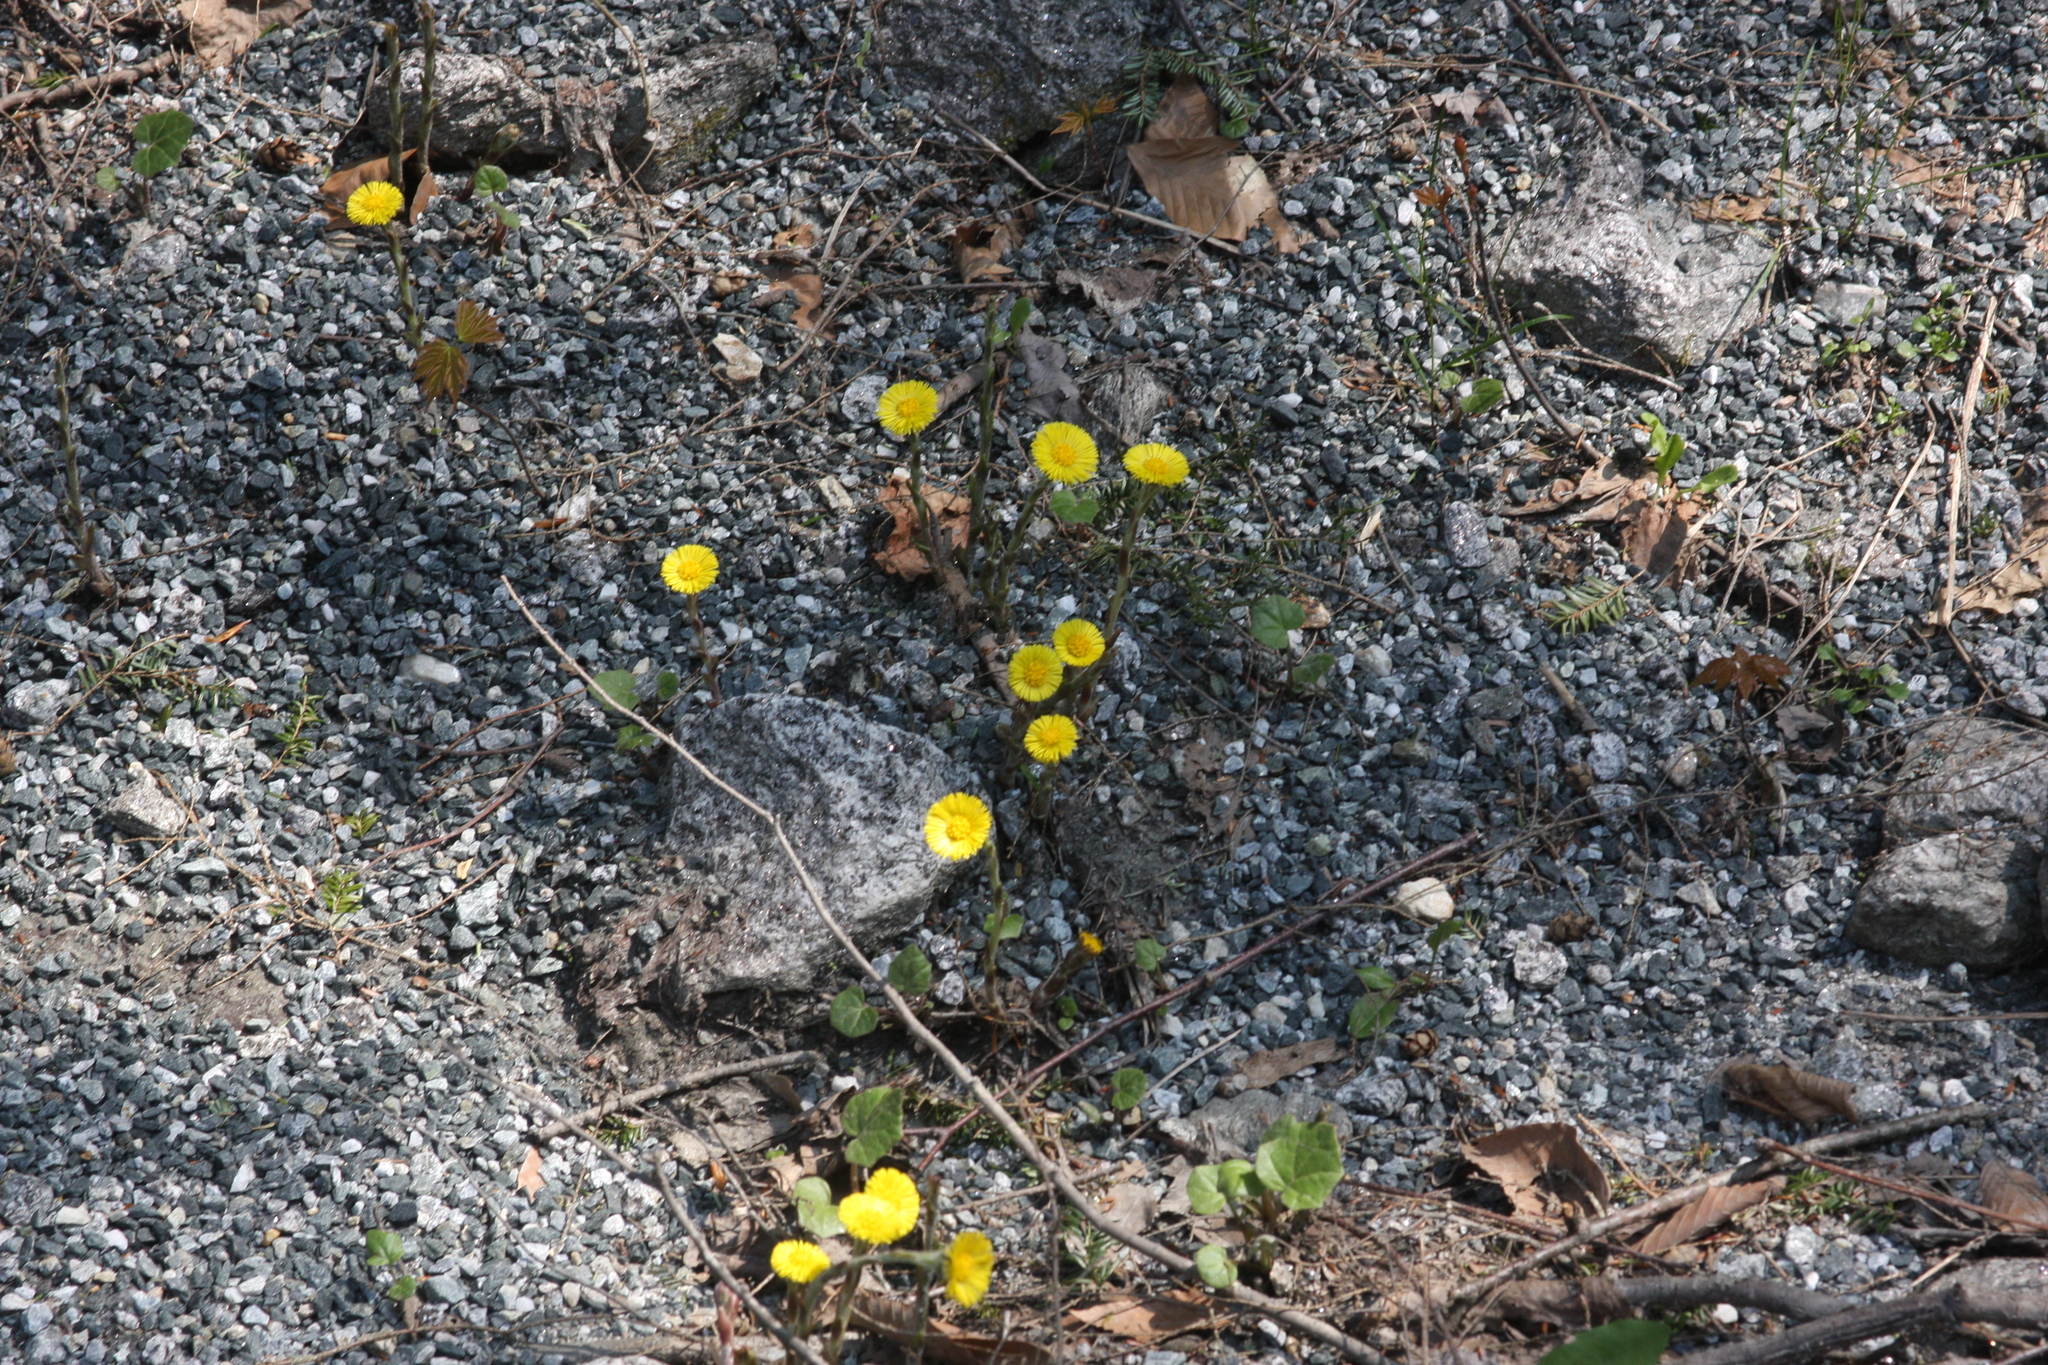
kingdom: Plantae
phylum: Tracheophyta
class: Magnoliopsida
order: Asterales
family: Asteraceae
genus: Tussilago
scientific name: Tussilago farfara
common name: Coltsfoot
